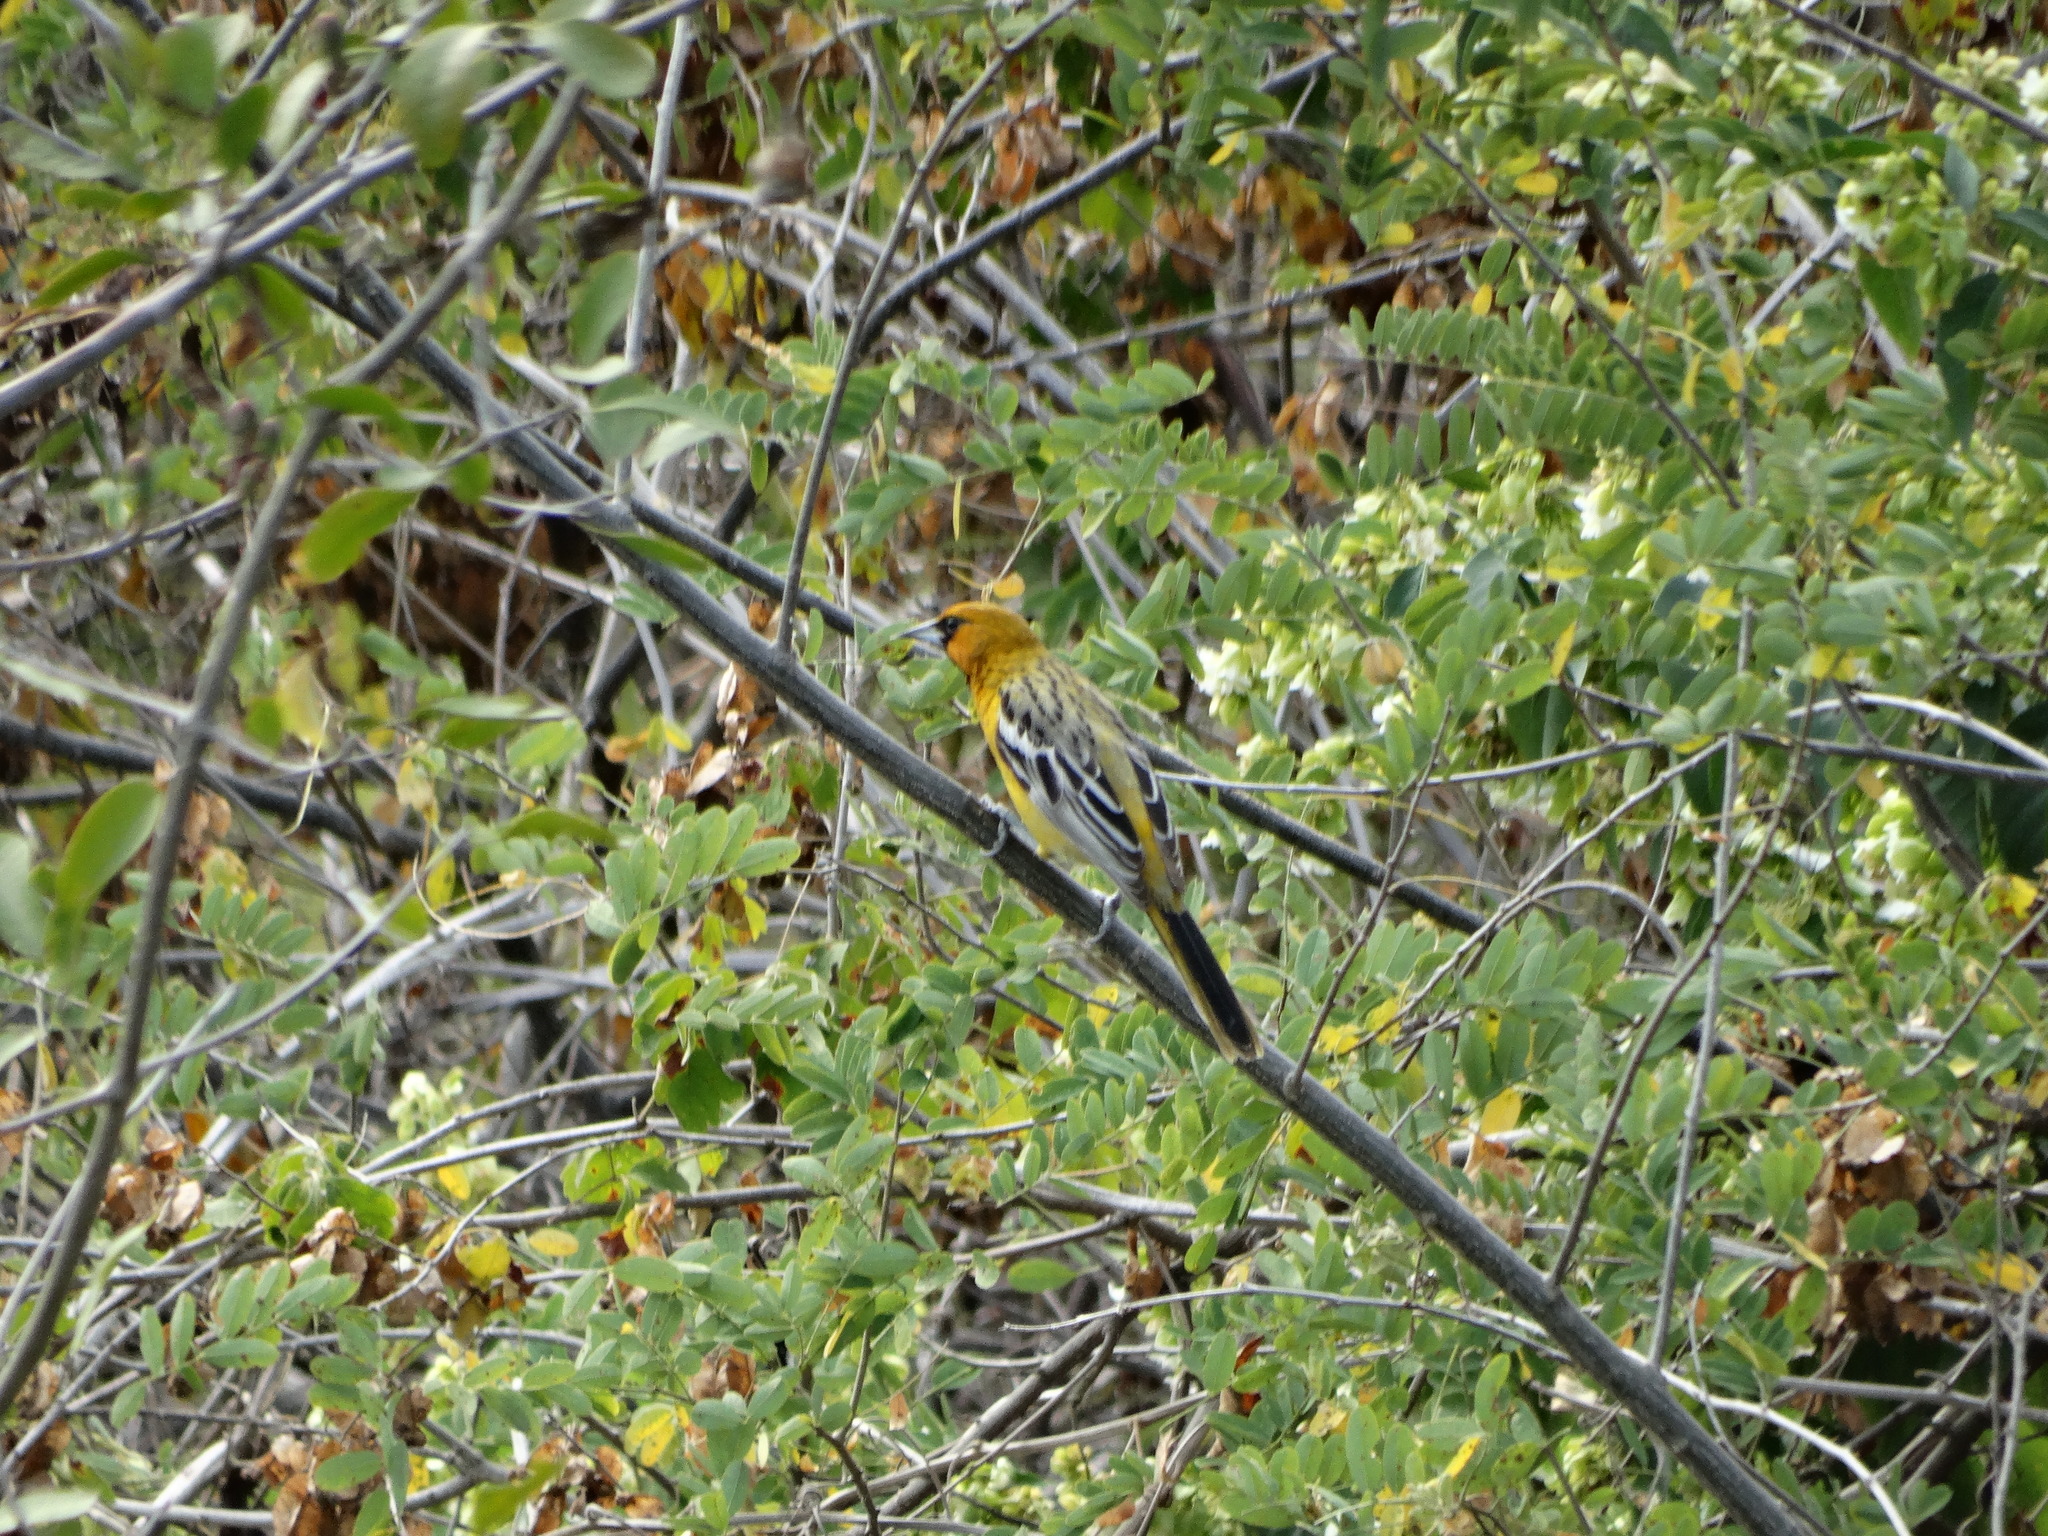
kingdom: Animalia
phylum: Chordata
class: Aves
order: Passeriformes
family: Icteridae
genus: Icterus
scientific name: Icterus pustulatus
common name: Streak-backed oriole
